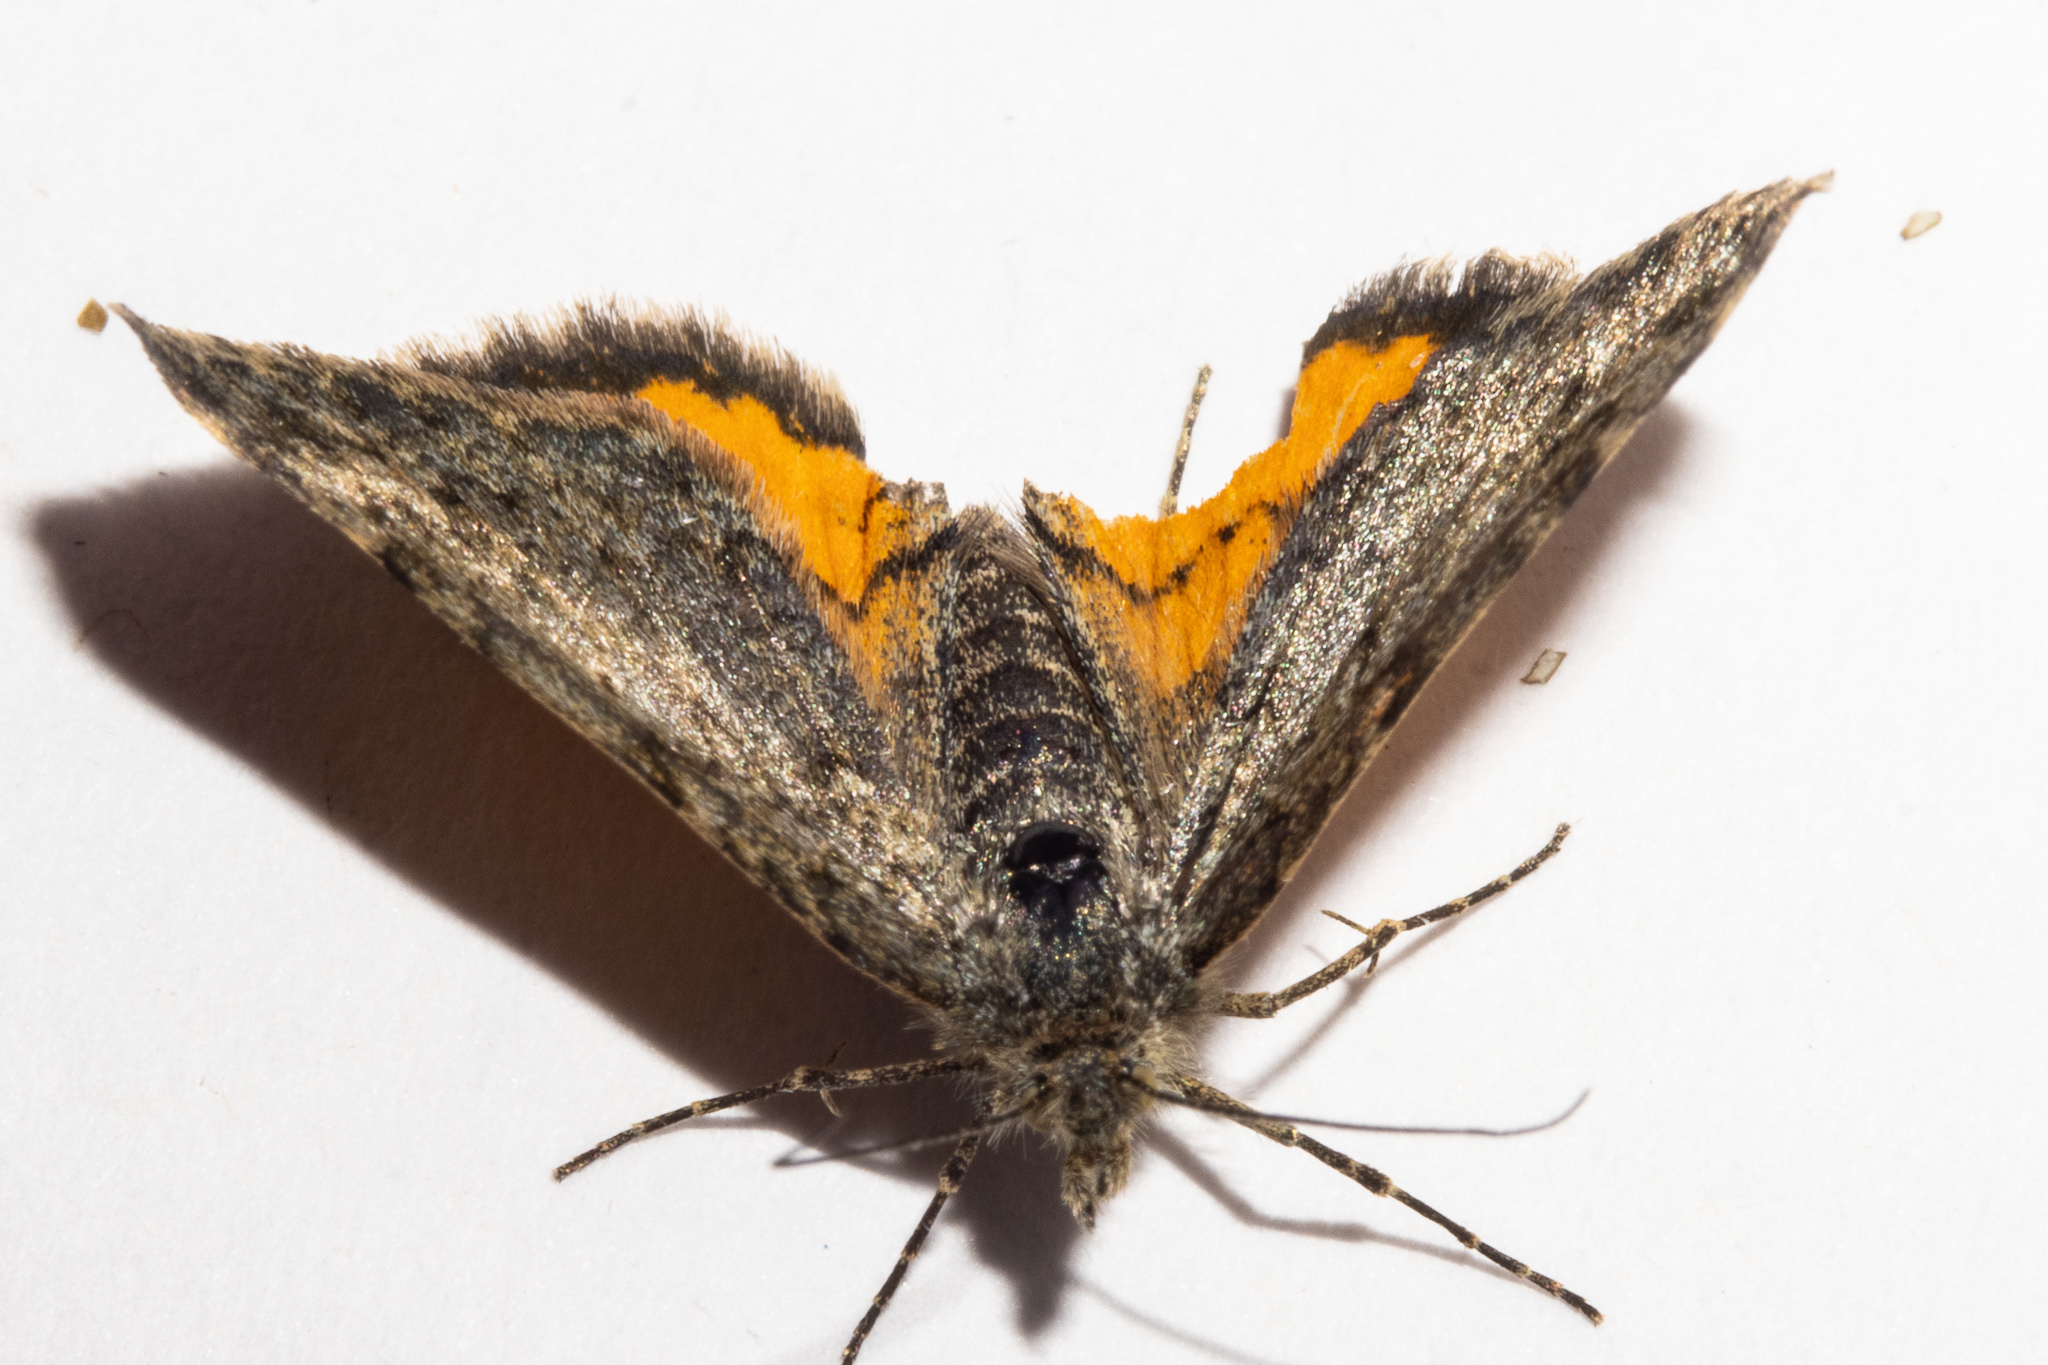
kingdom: Animalia
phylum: Arthropoda
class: Insecta
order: Lepidoptera
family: Geometridae
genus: Paranotoreas
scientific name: Paranotoreas brephosata
